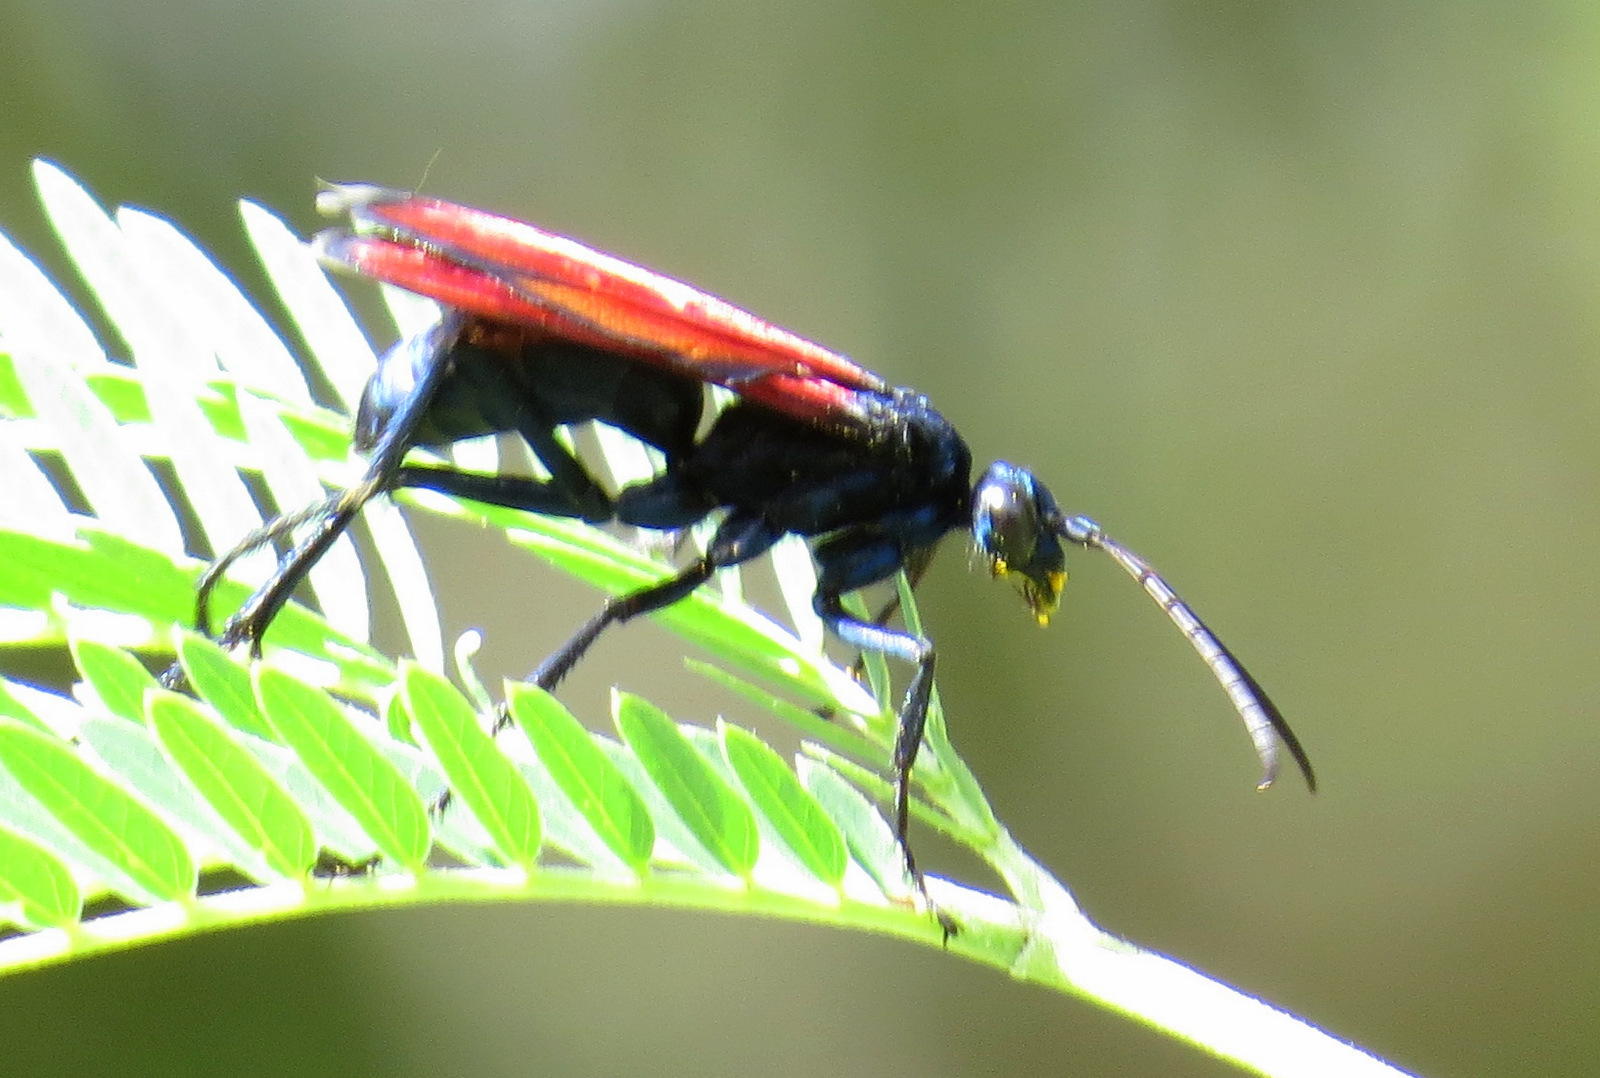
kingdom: Animalia
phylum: Arthropoda
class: Insecta
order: Hymenoptera
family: Pompilidae
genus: Pepsis
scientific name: Pepsis marginata
